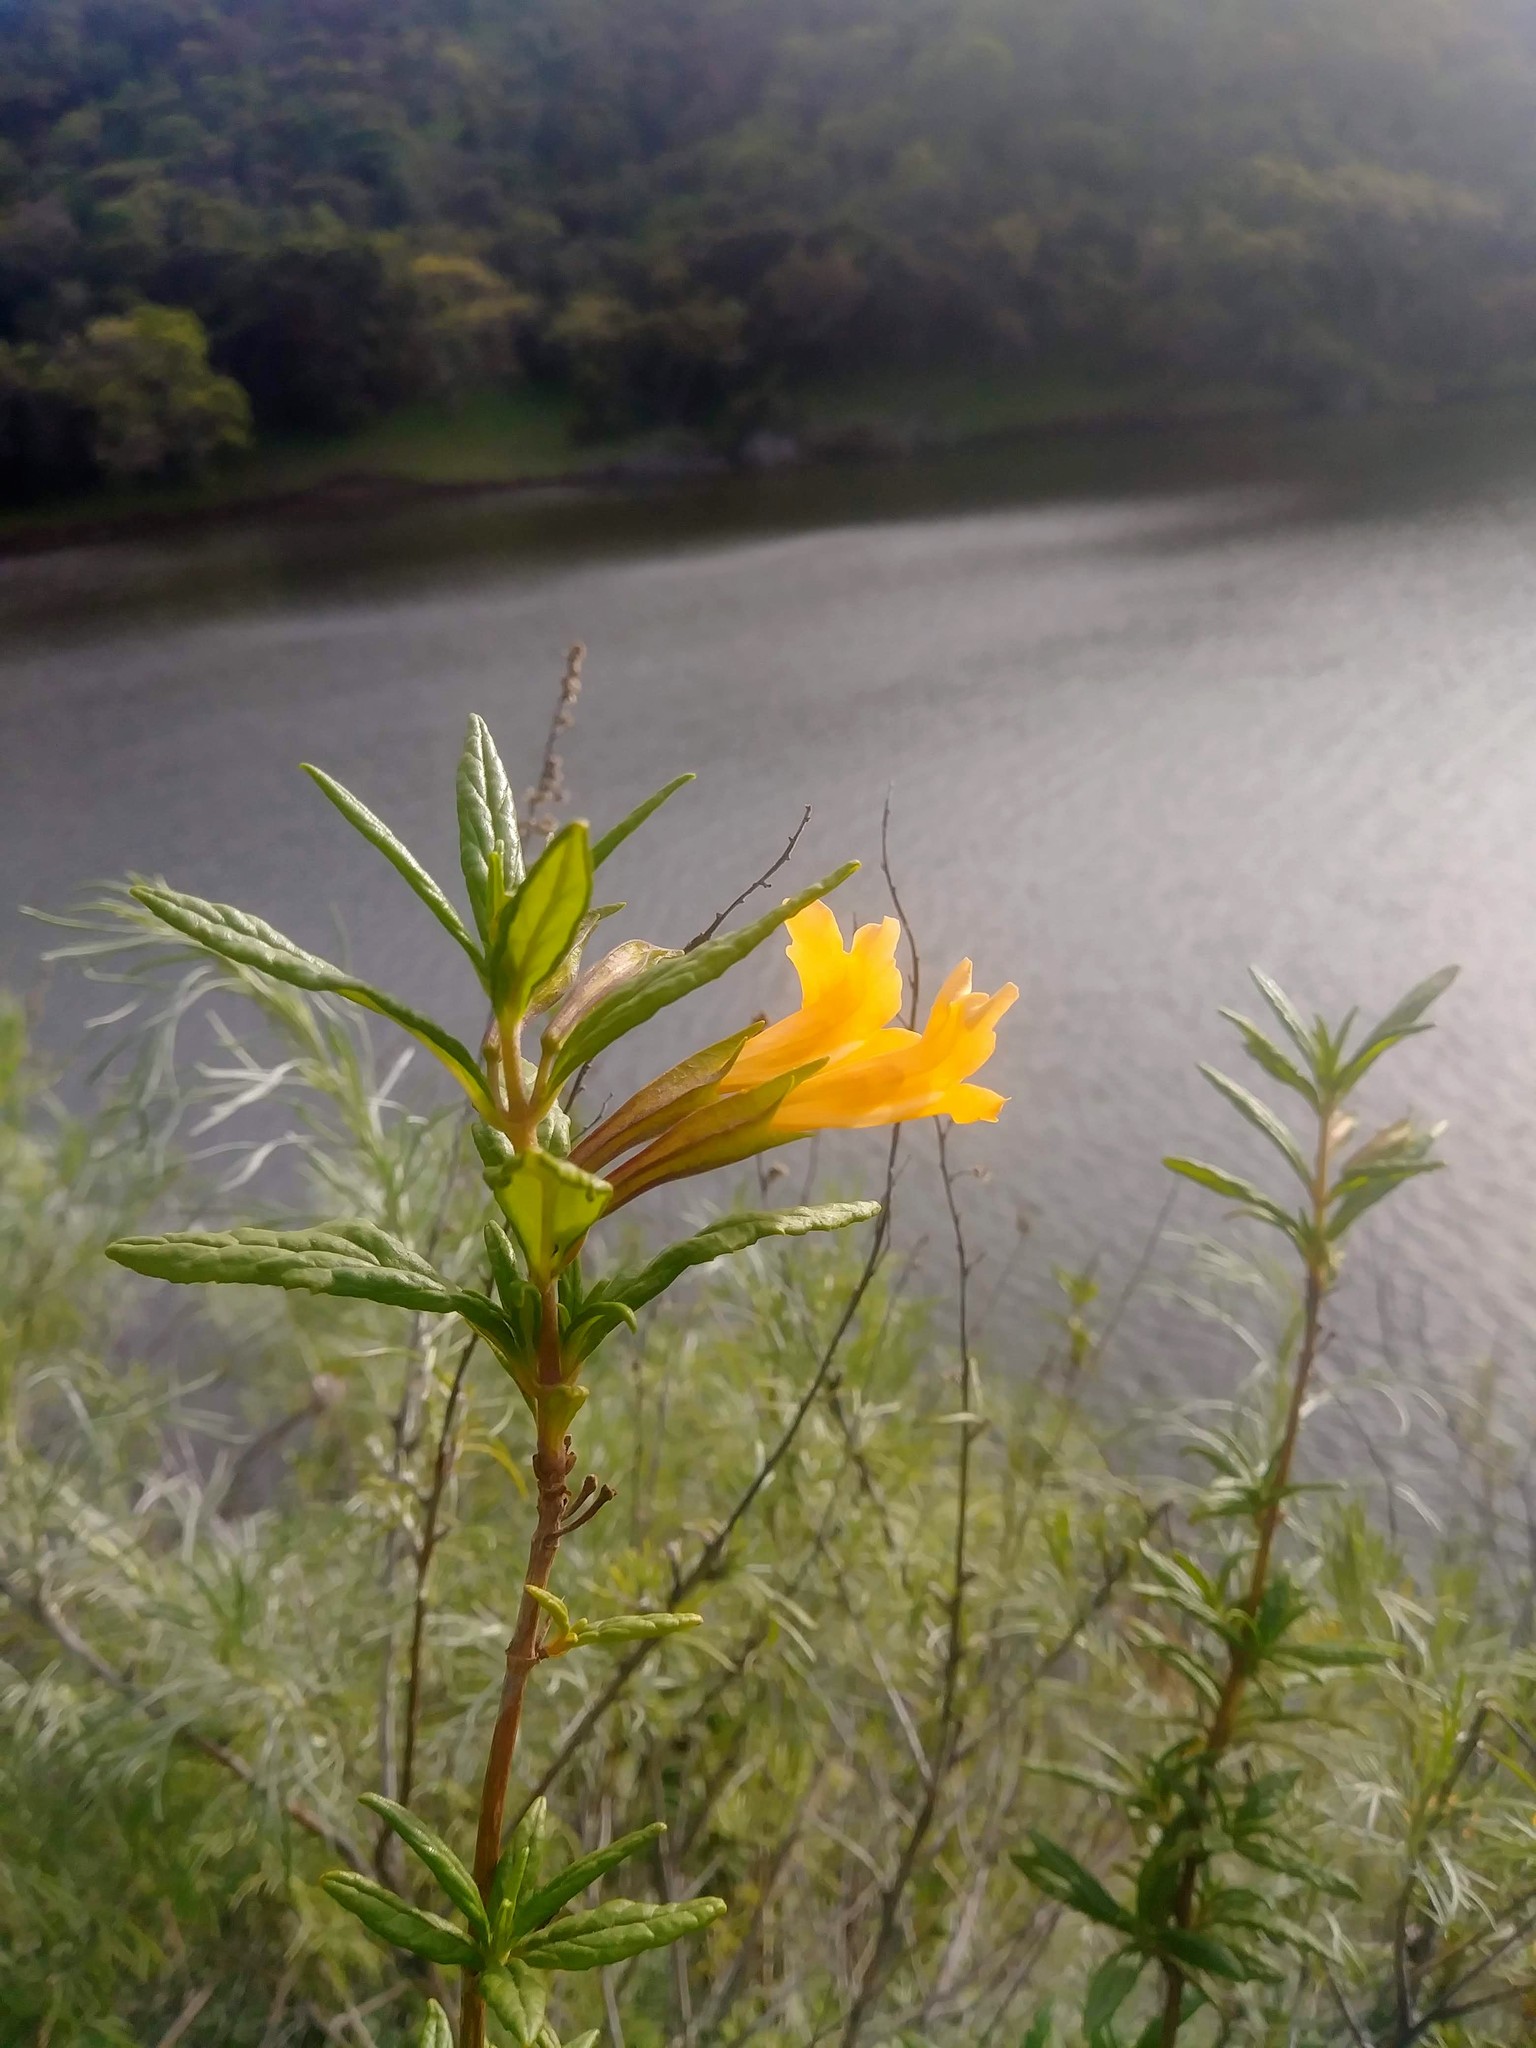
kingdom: Plantae
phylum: Tracheophyta
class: Magnoliopsida
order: Lamiales
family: Phrymaceae
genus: Diplacus
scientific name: Diplacus aurantiacus
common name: Bush monkey-flower
